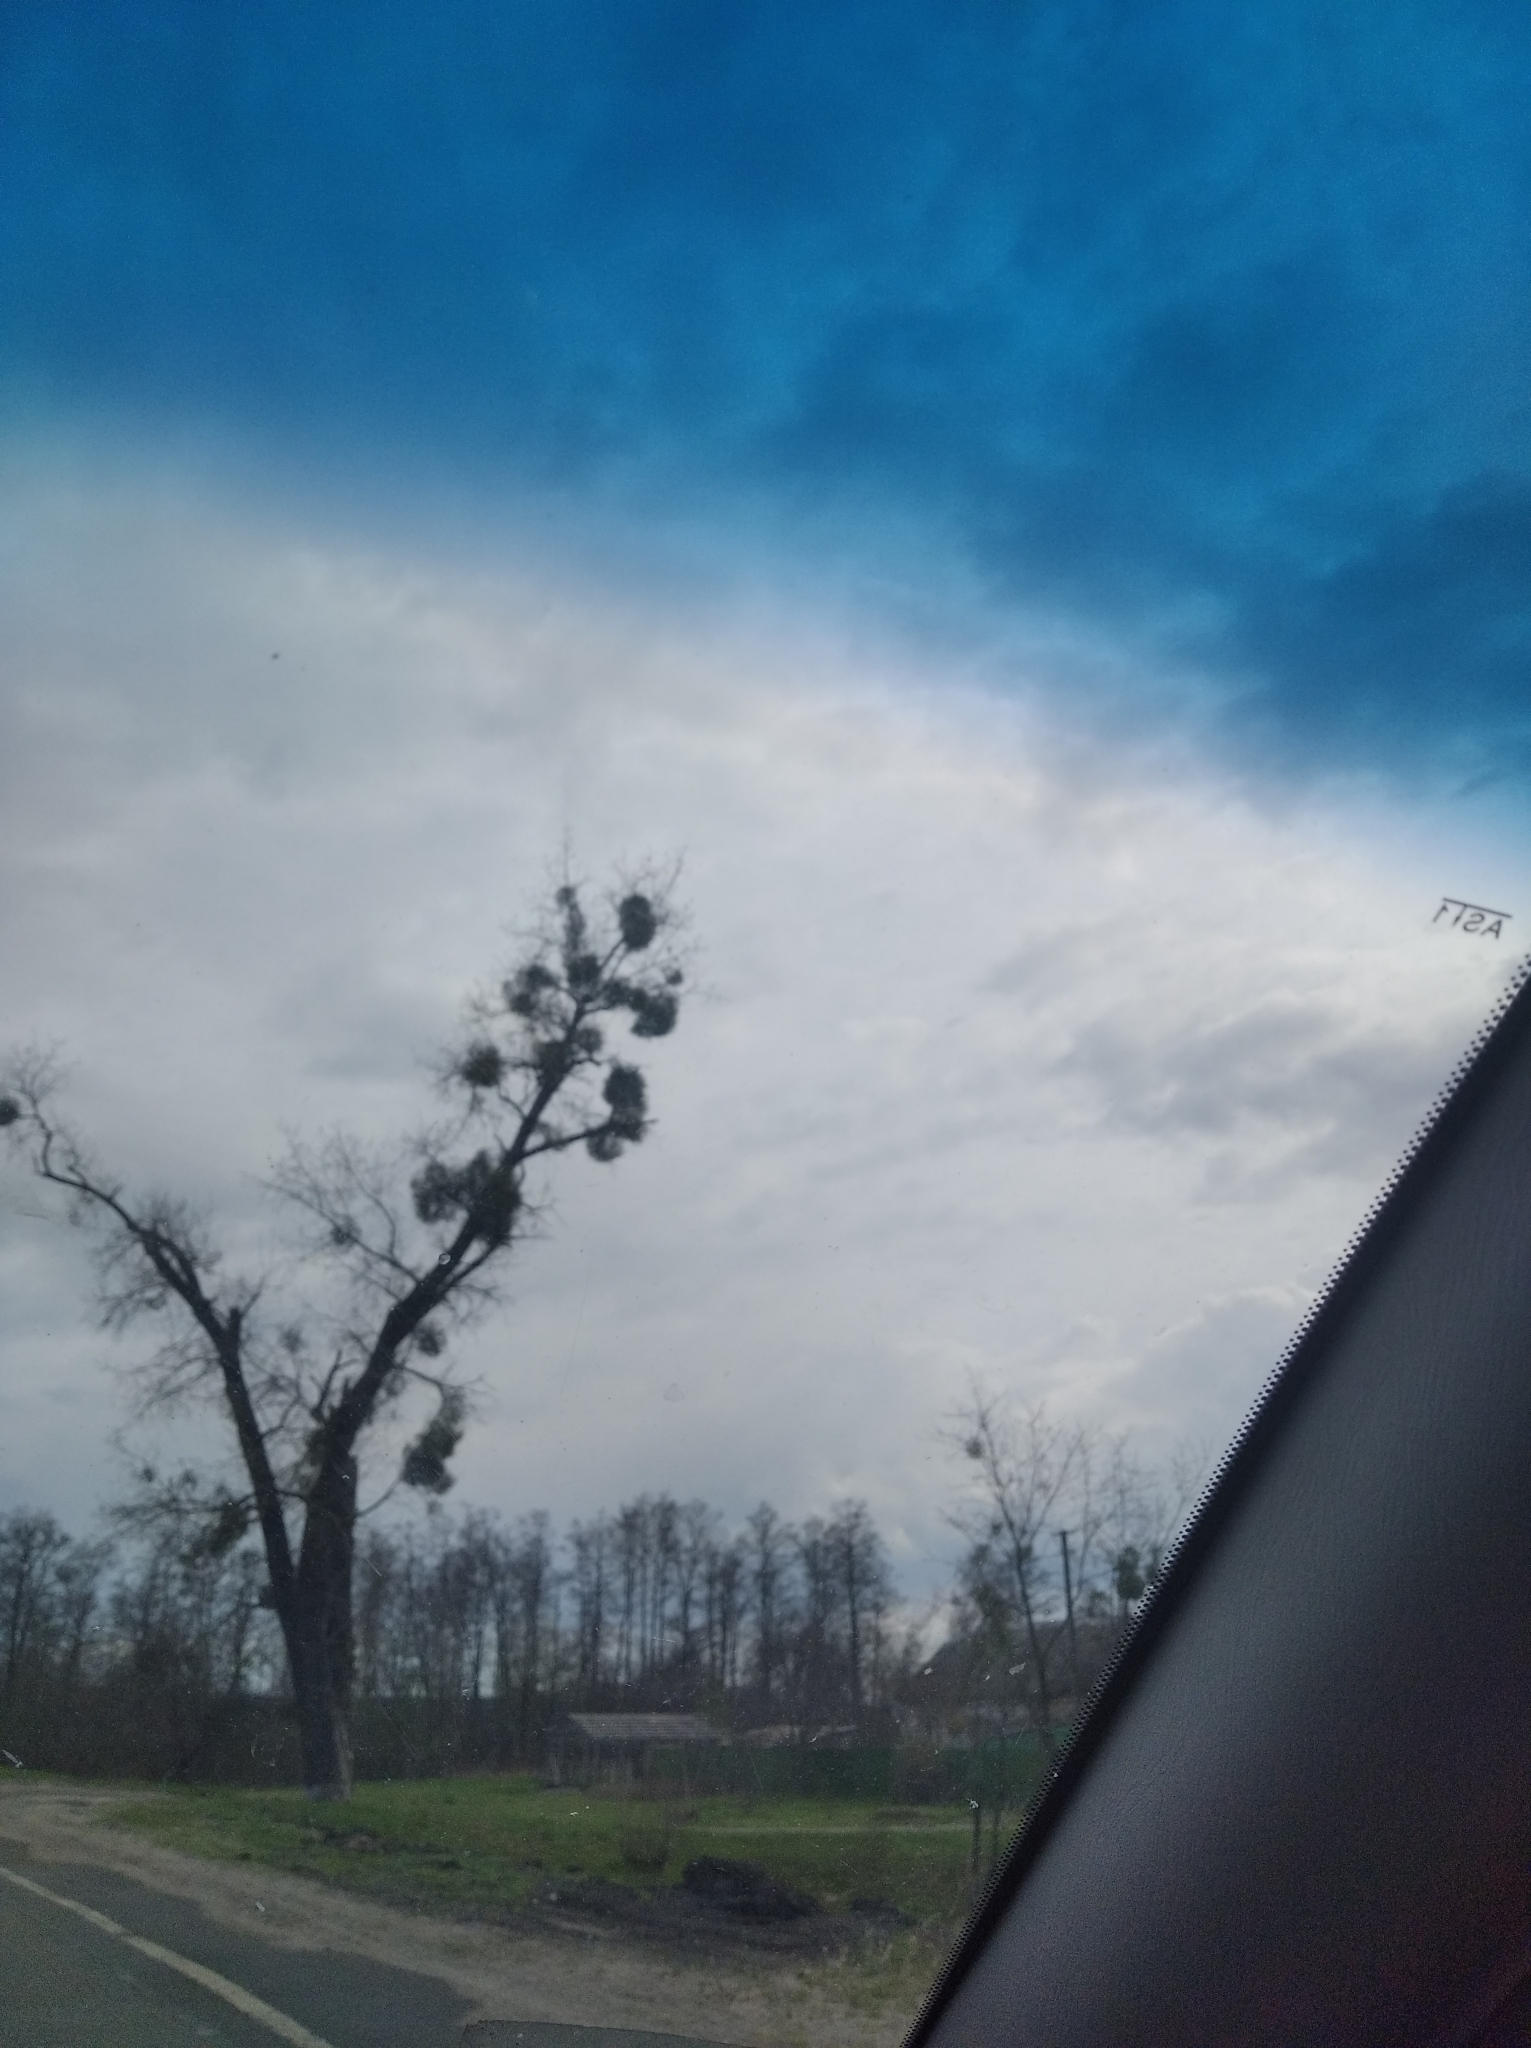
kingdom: Plantae
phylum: Tracheophyta
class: Magnoliopsida
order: Santalales
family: Viscaceae
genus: Viscum
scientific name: Viscum album
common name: Mistletoe
